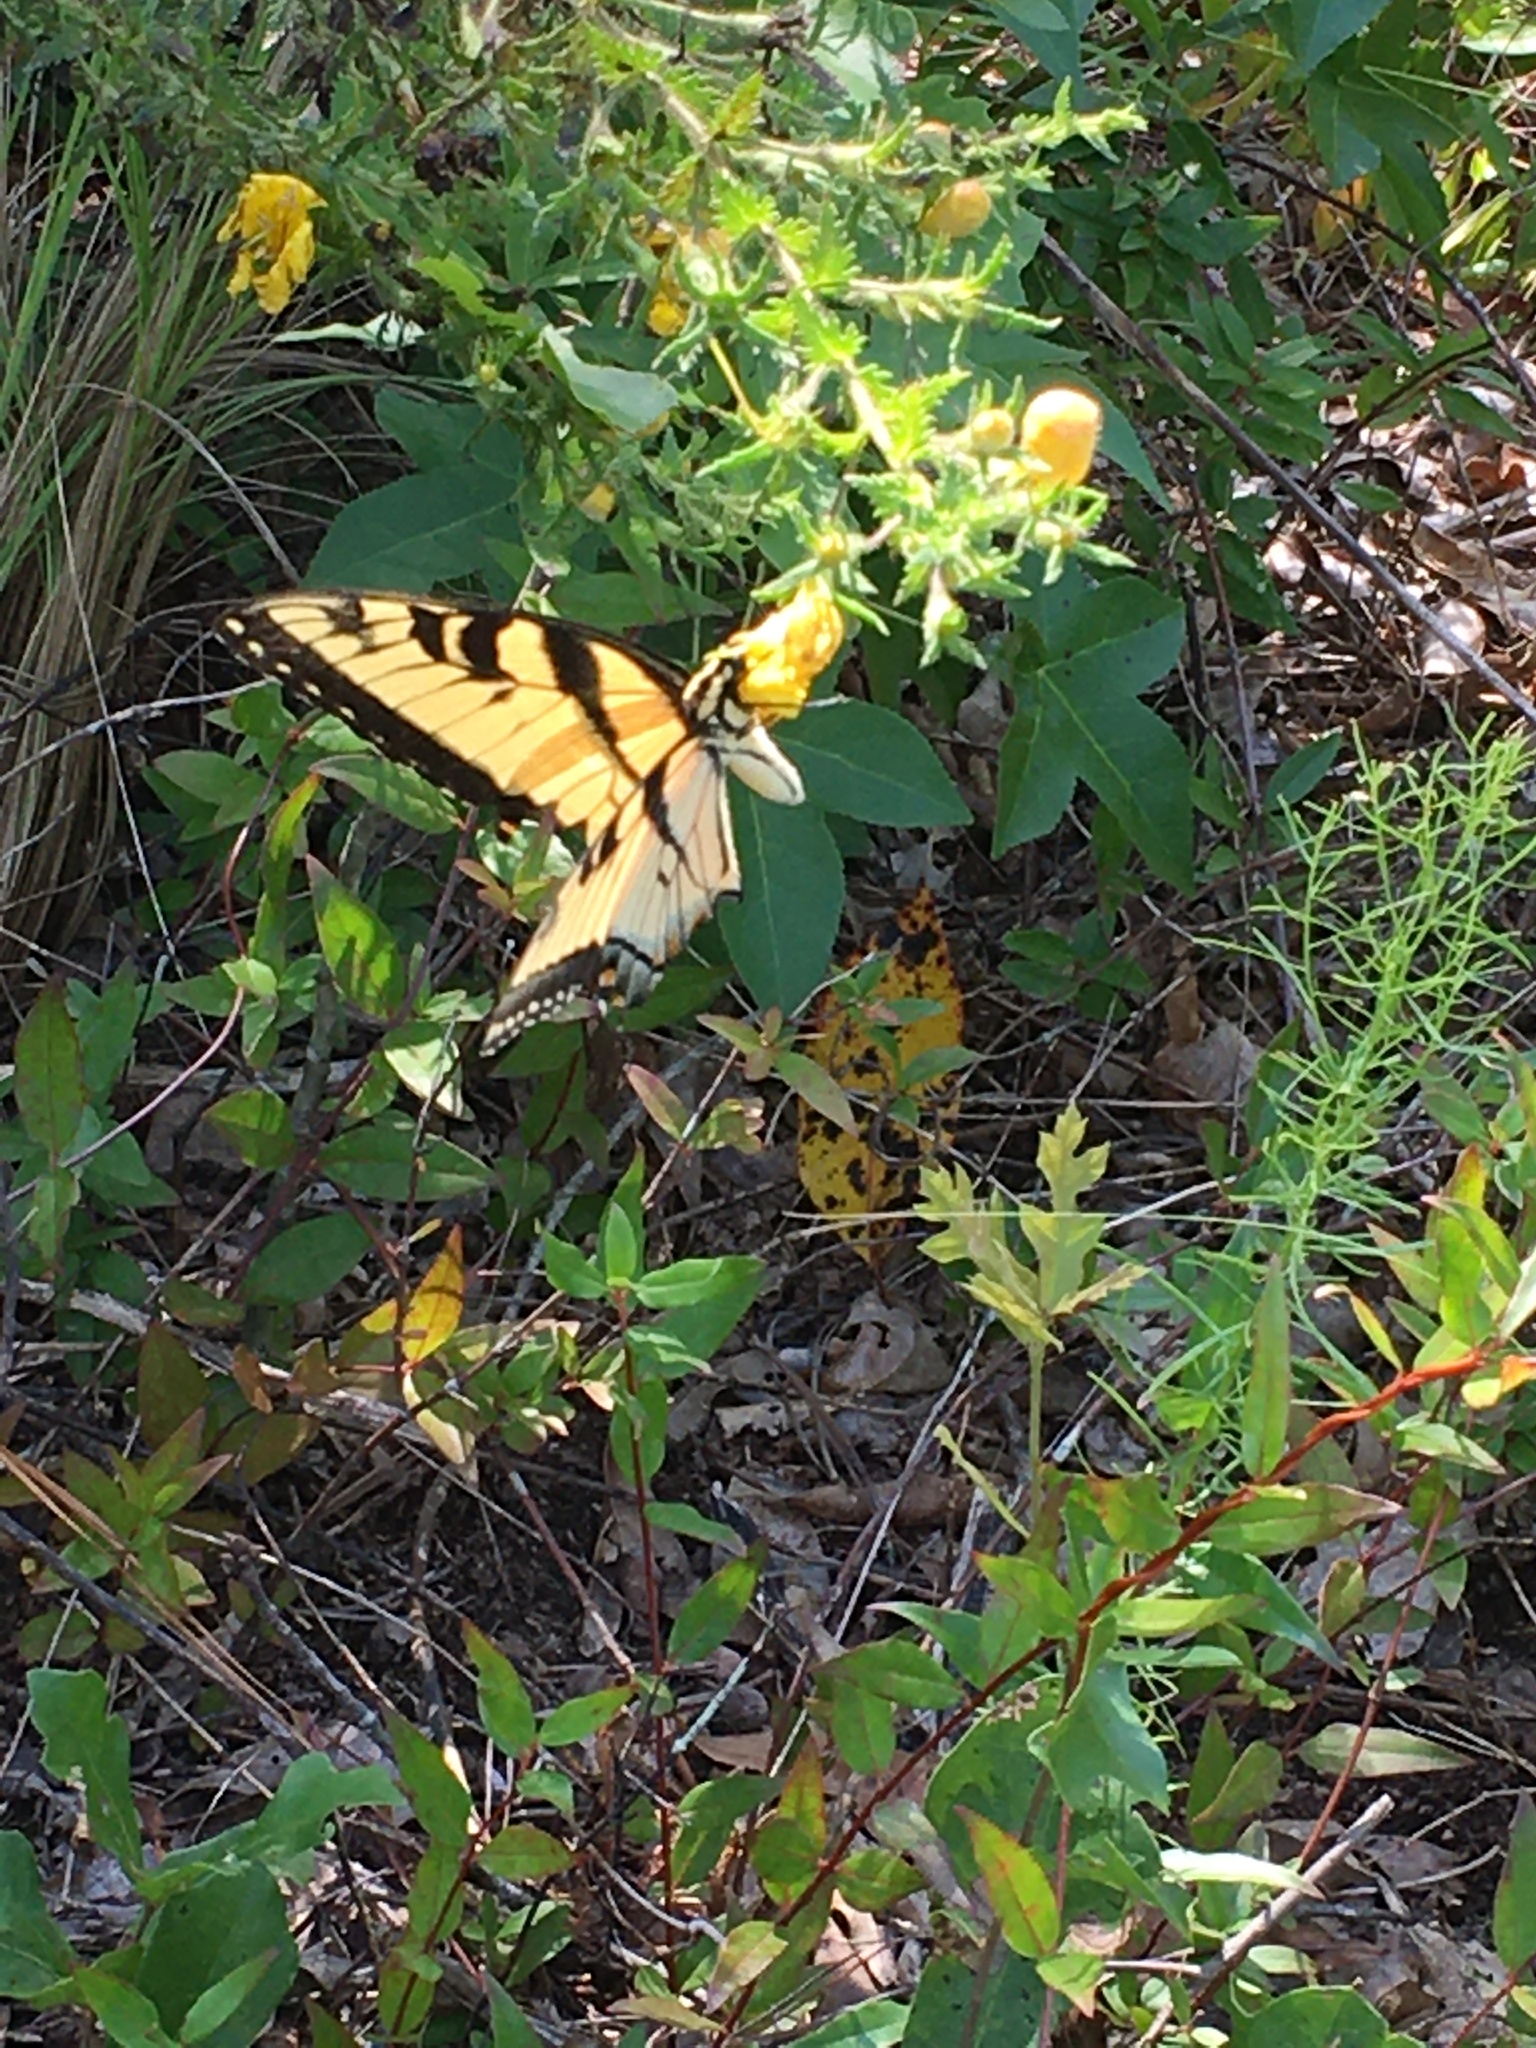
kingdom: Animalia
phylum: Arthropoda
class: Insecta
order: Lepidoptera
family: Papilionidae
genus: Papilio
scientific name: Papilio glaucus
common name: Tiger swallowtail
